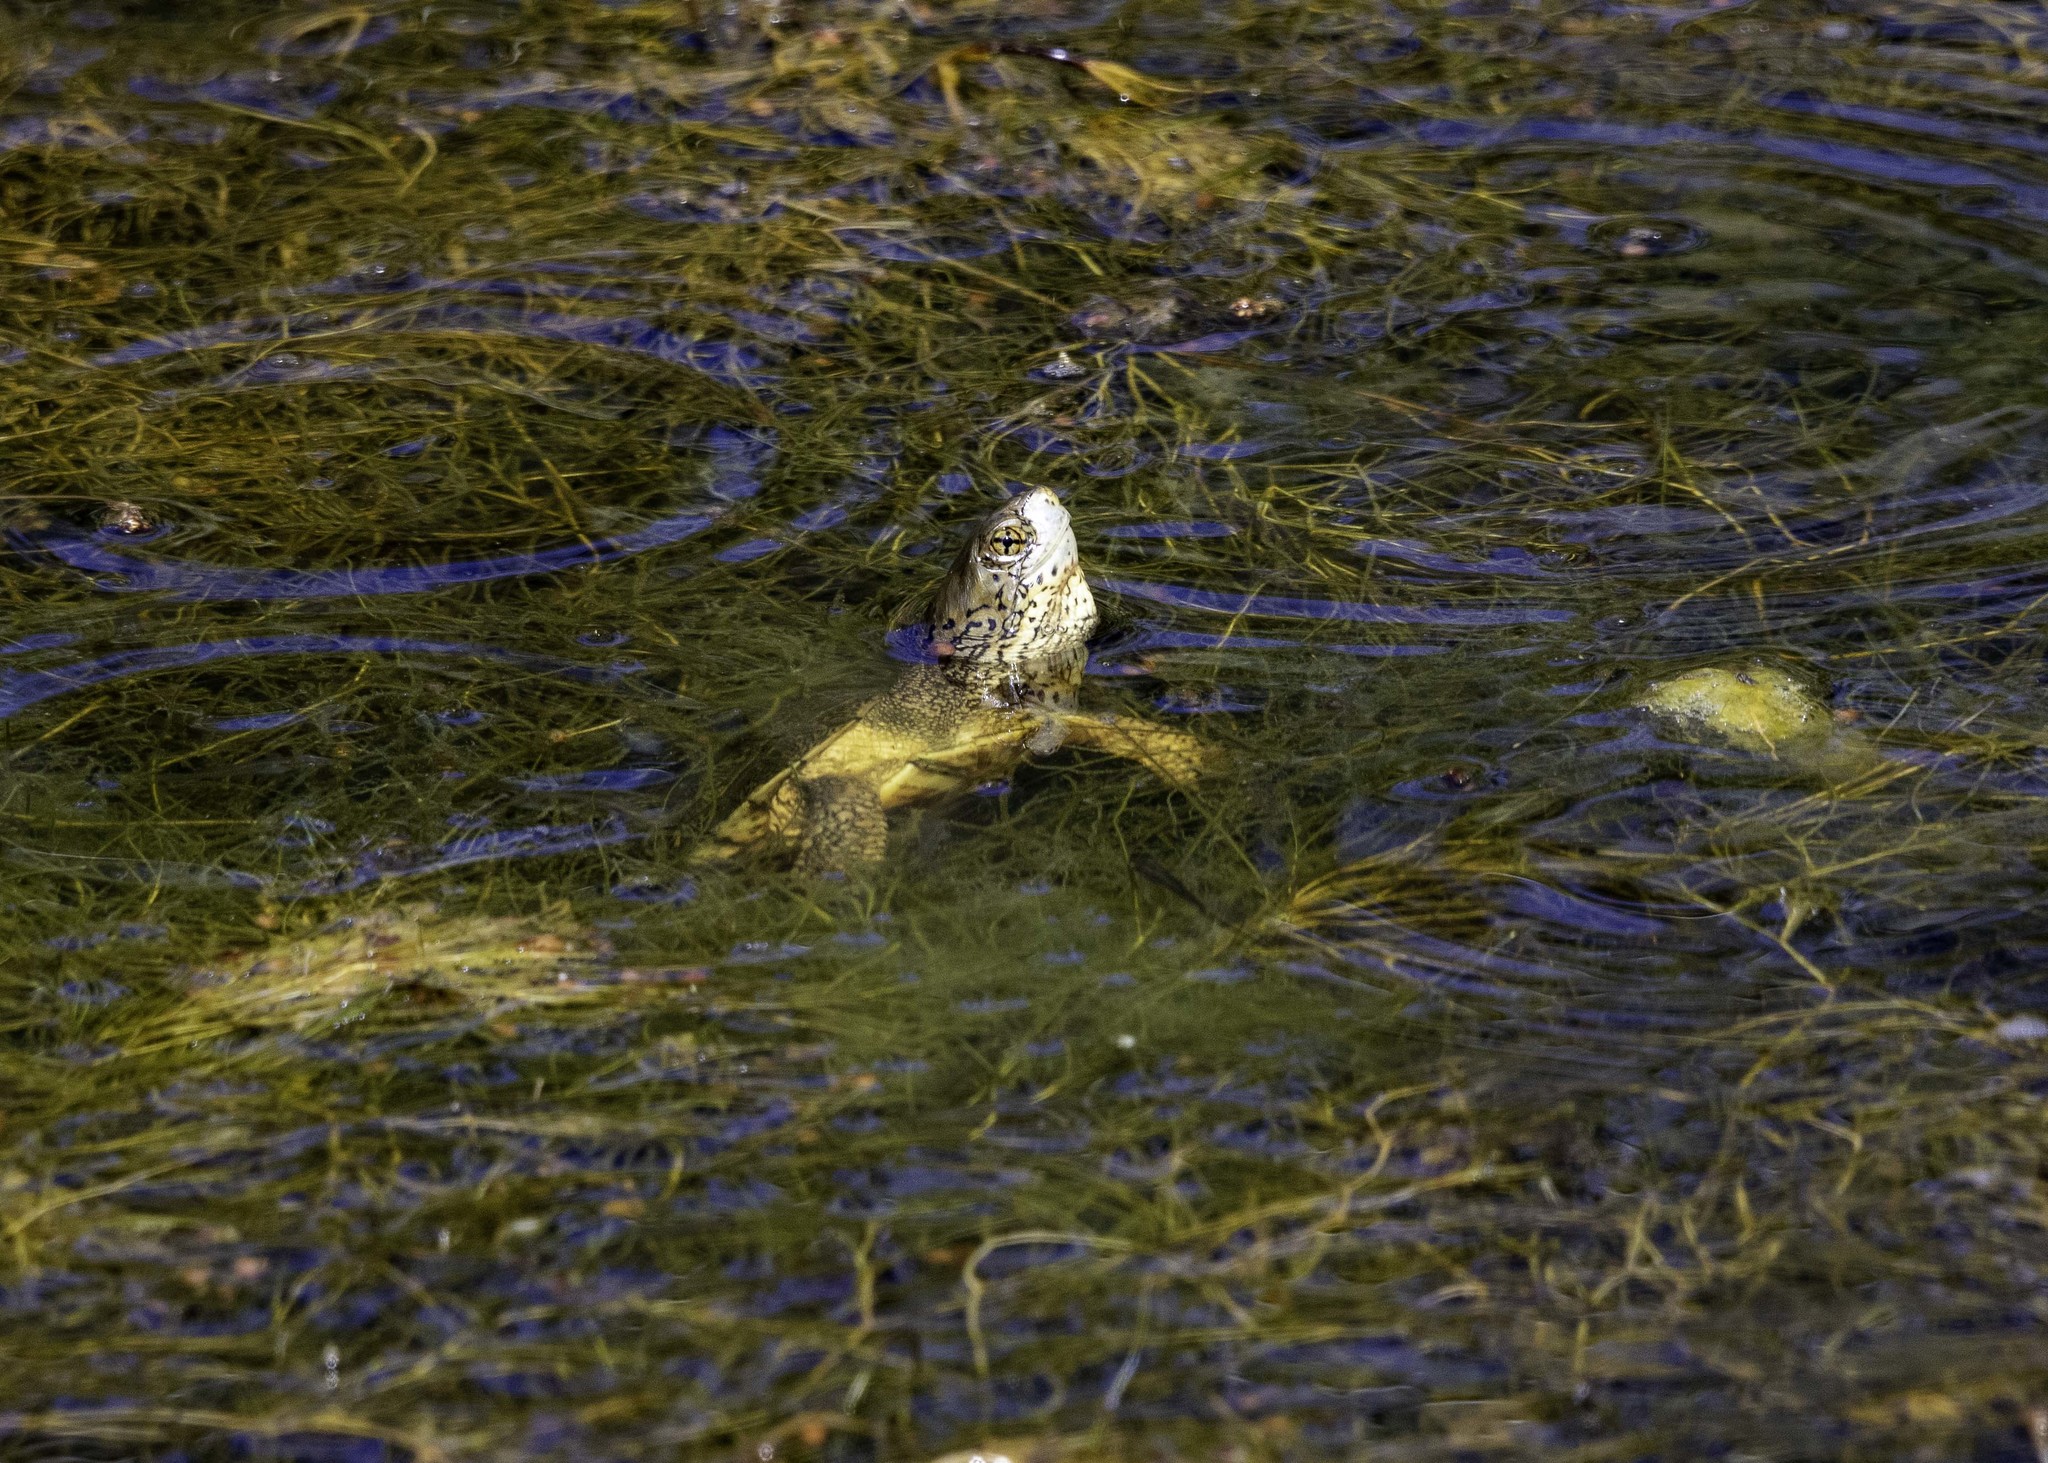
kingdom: Animalia
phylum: Chordata
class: Testudines
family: Emydidae
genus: Actinemys
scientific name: Actinemys pallida
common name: Southern pacific pond turtle
